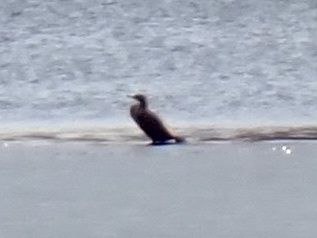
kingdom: Animalia
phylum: Chordata
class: Aves
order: Suliformes
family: Phalacrocoracidae
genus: Phalacrocorax
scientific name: Phalacrocorax auritus
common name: Double-crested cormorant
